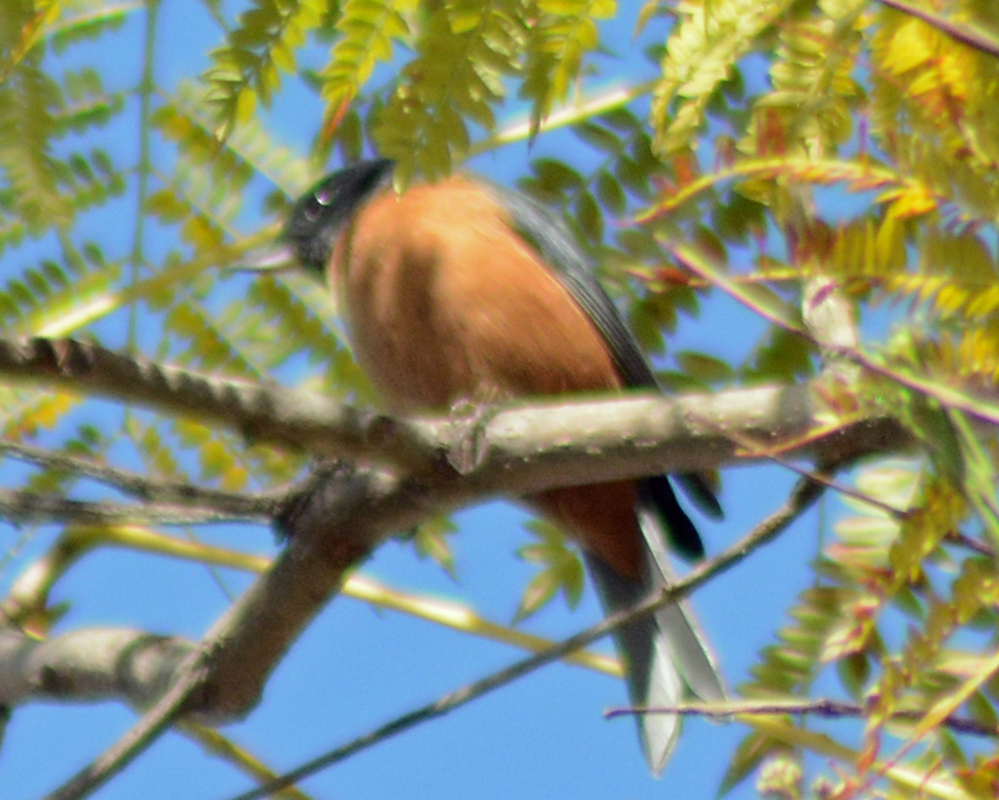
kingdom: Animalia
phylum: Chordata
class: Aves
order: Passeriformes
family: Thraupidae
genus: Diglossa
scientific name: Diglossa baritula
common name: Cinnamon-bellied flowerpiercer
